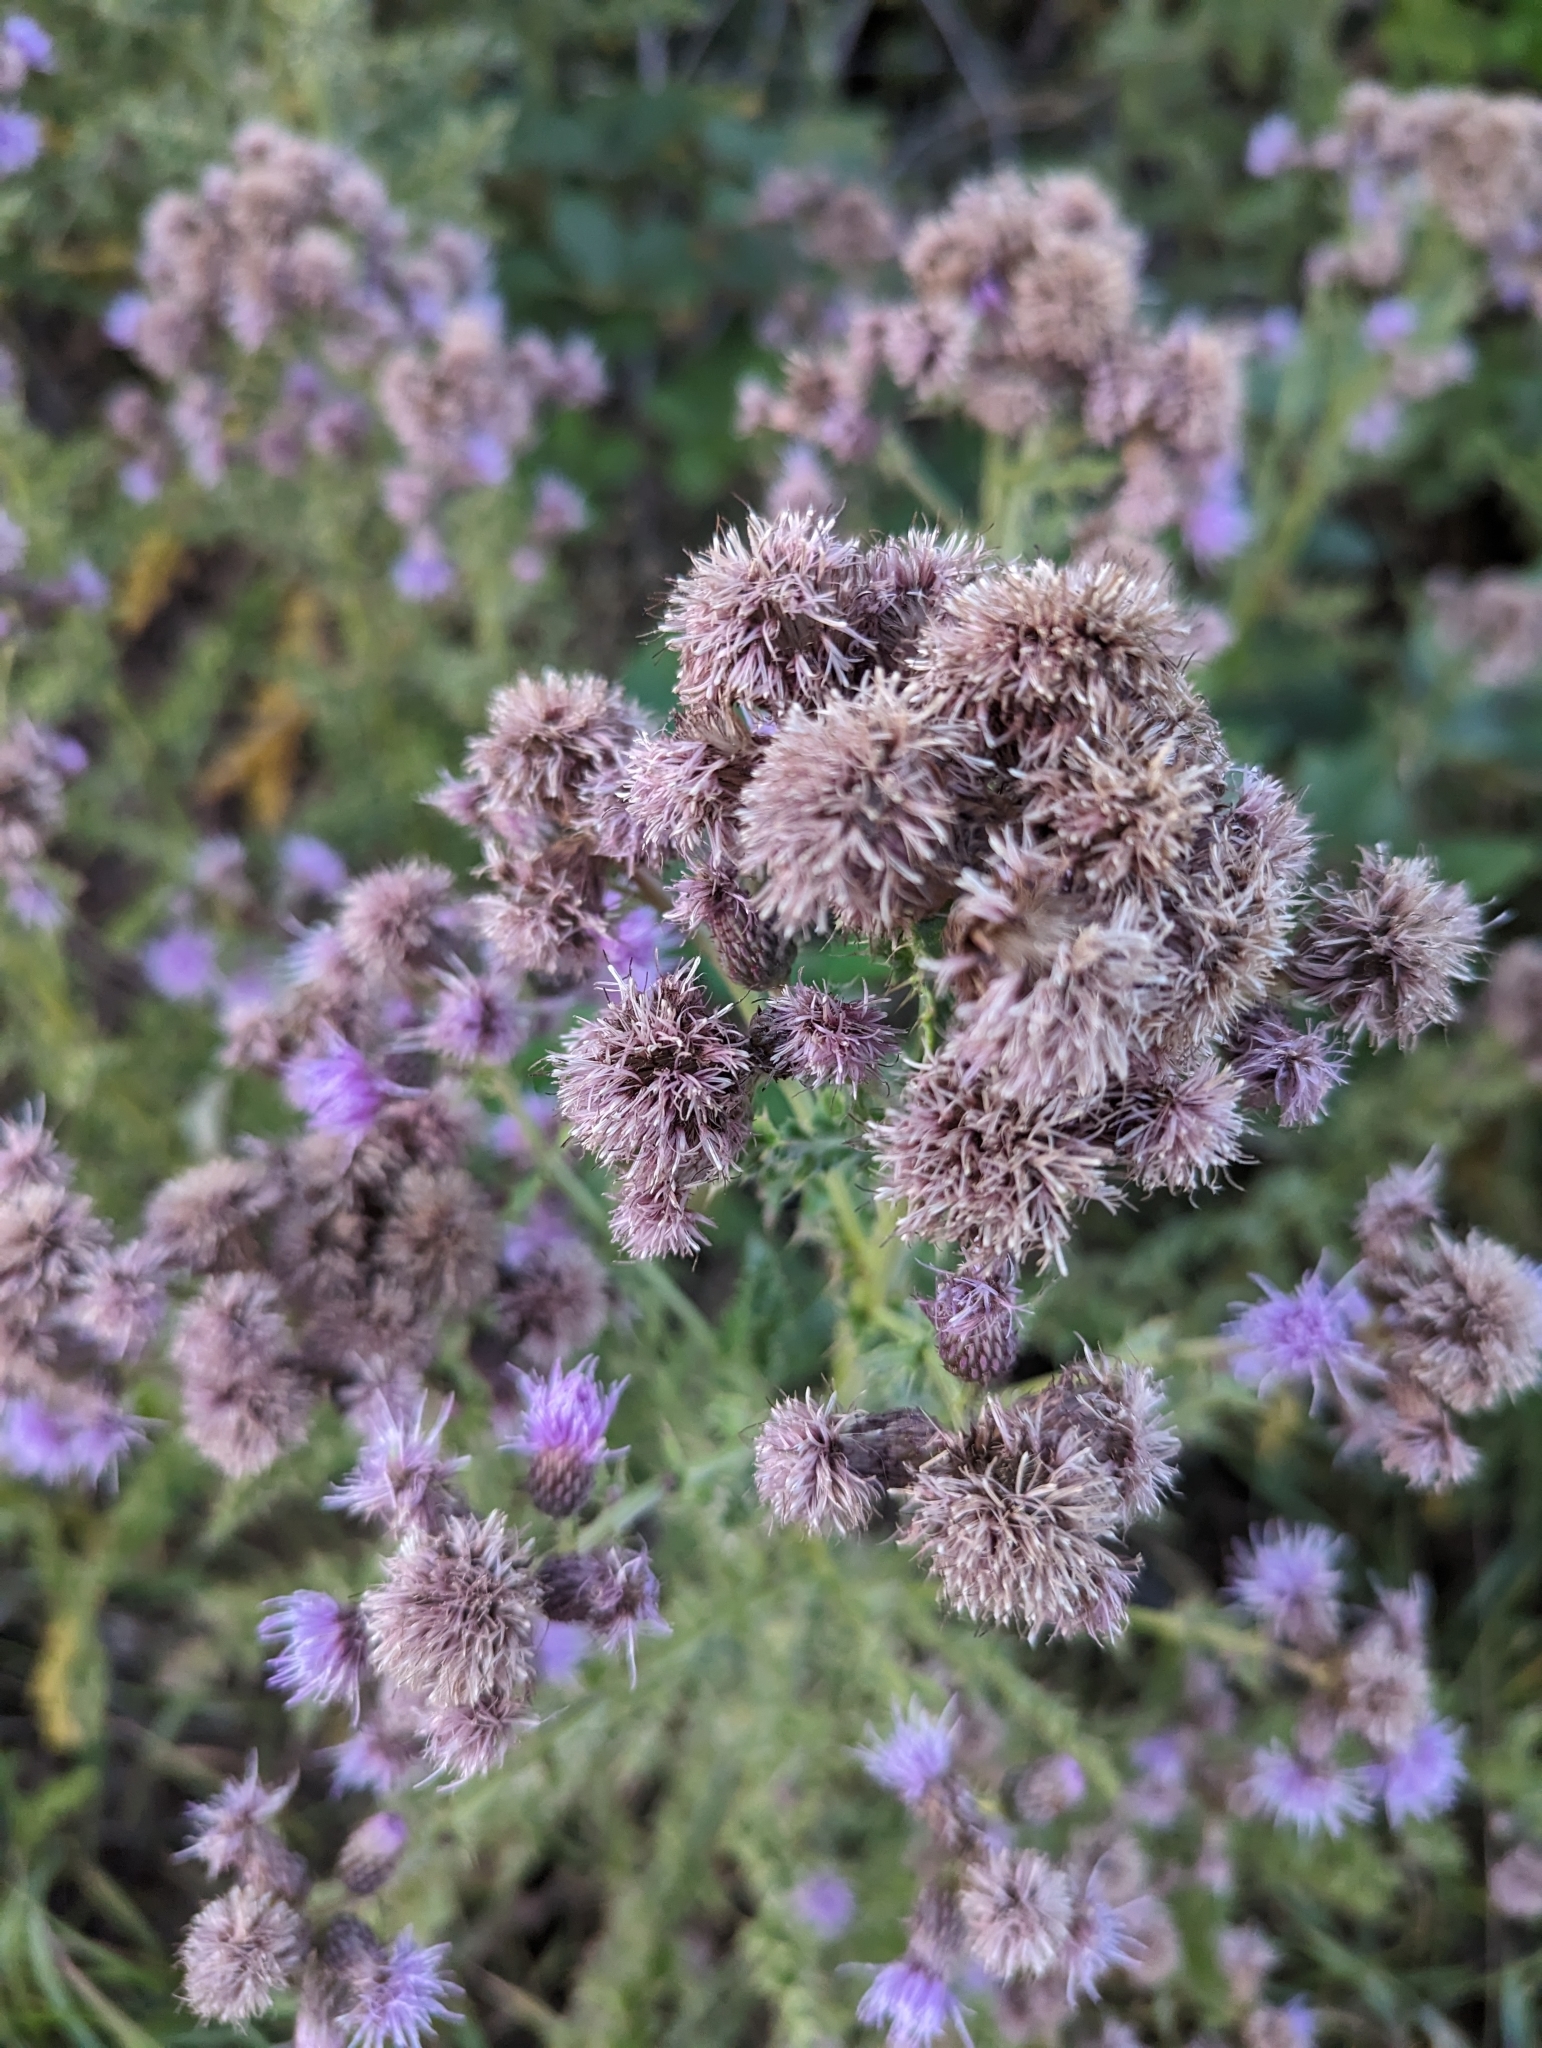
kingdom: Plantae
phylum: Tracheophyta
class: Magnoliopsida
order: Asterales
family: Asteraceae
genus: Cirsium
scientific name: Cirsium arvense
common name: Creeping thistle
